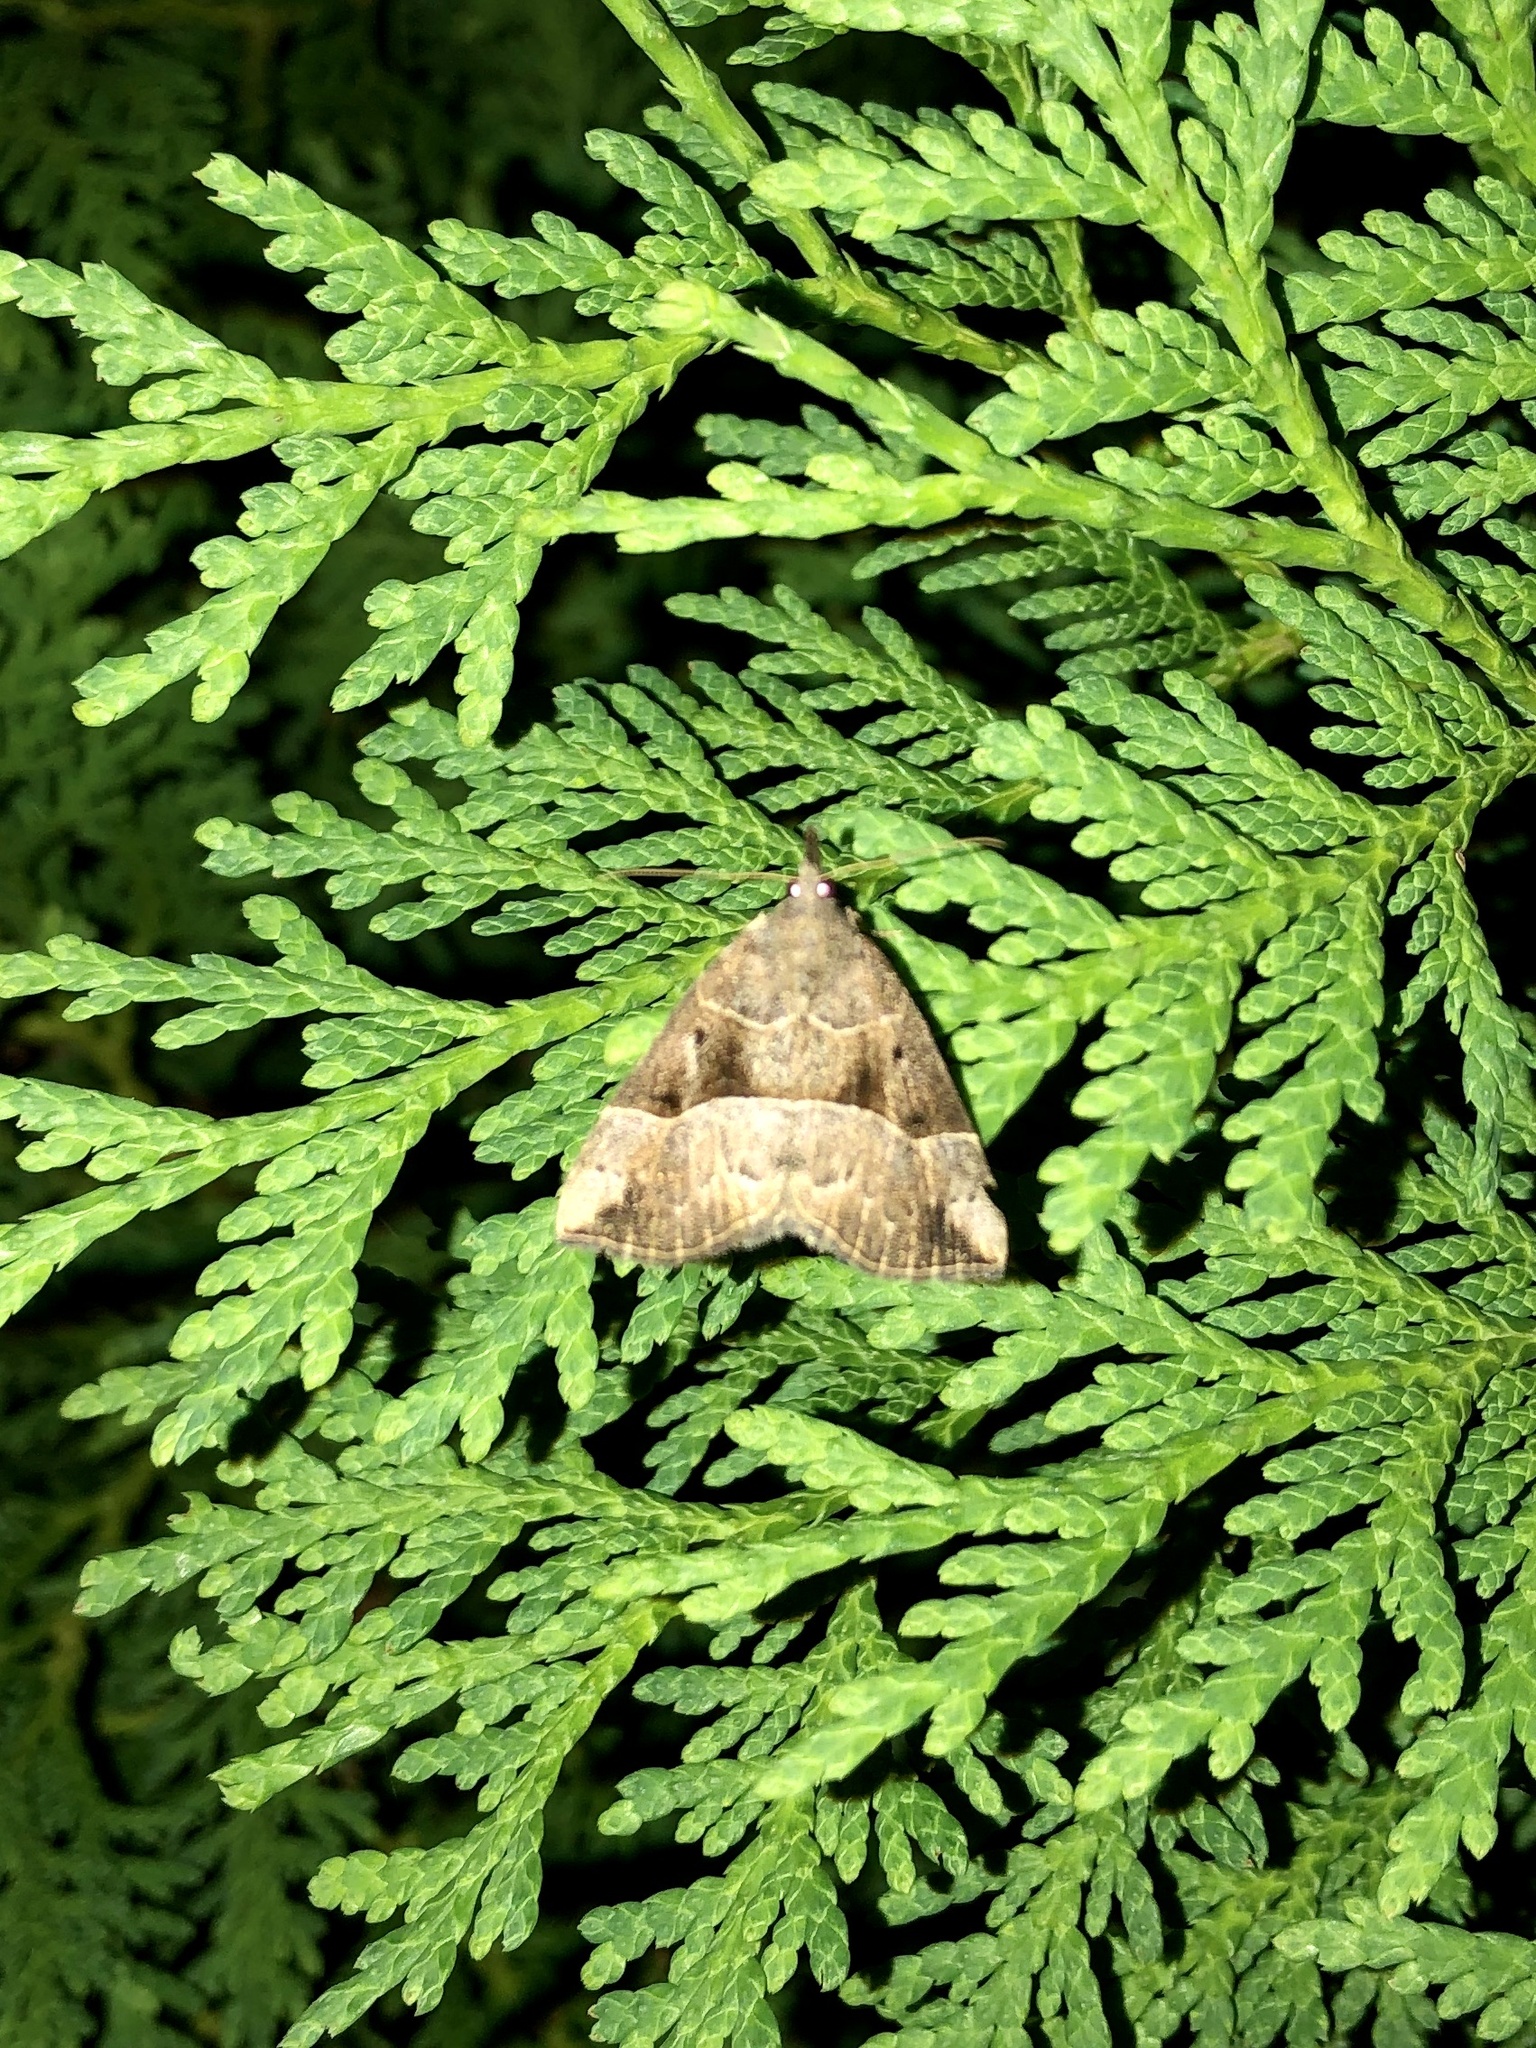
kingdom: Animalia
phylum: Arthropoda
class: Insecta
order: Lepidoptera
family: Erebidae
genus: Hypena
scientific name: Hypena deceptalis
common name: Deceptive snout
